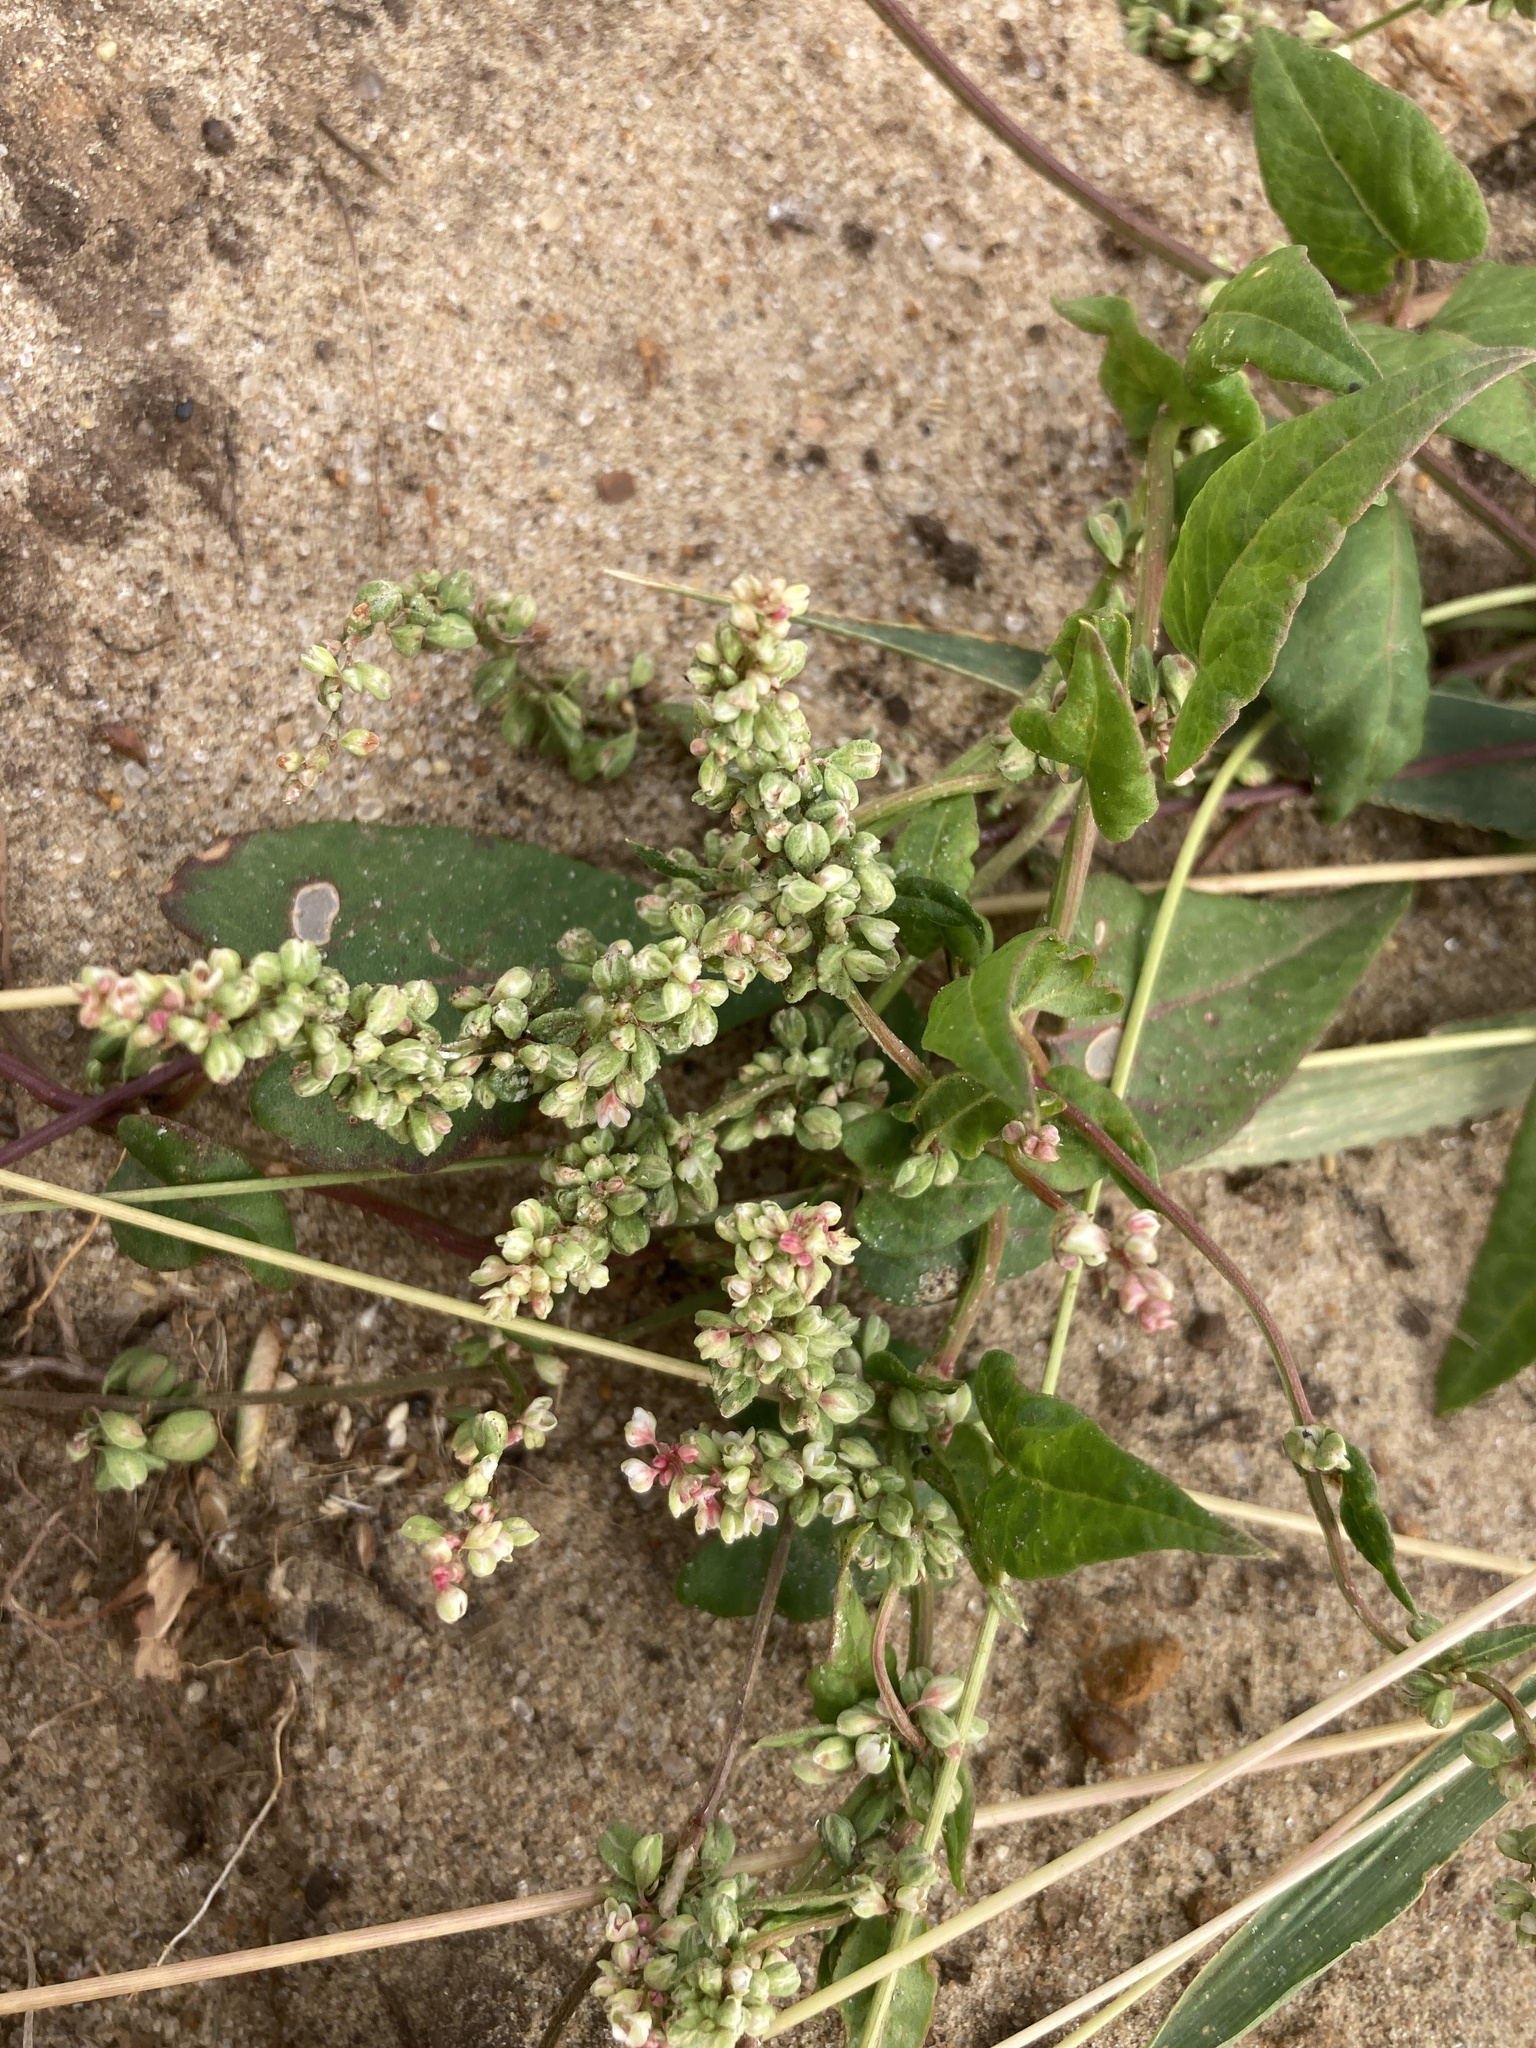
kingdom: Plantae
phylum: Tracheophyta
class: Magnoliopsida
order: Caryophyllales
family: Polygonaceae
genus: Fallopia
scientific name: Fallopia convolvulus
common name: Black bindweed
